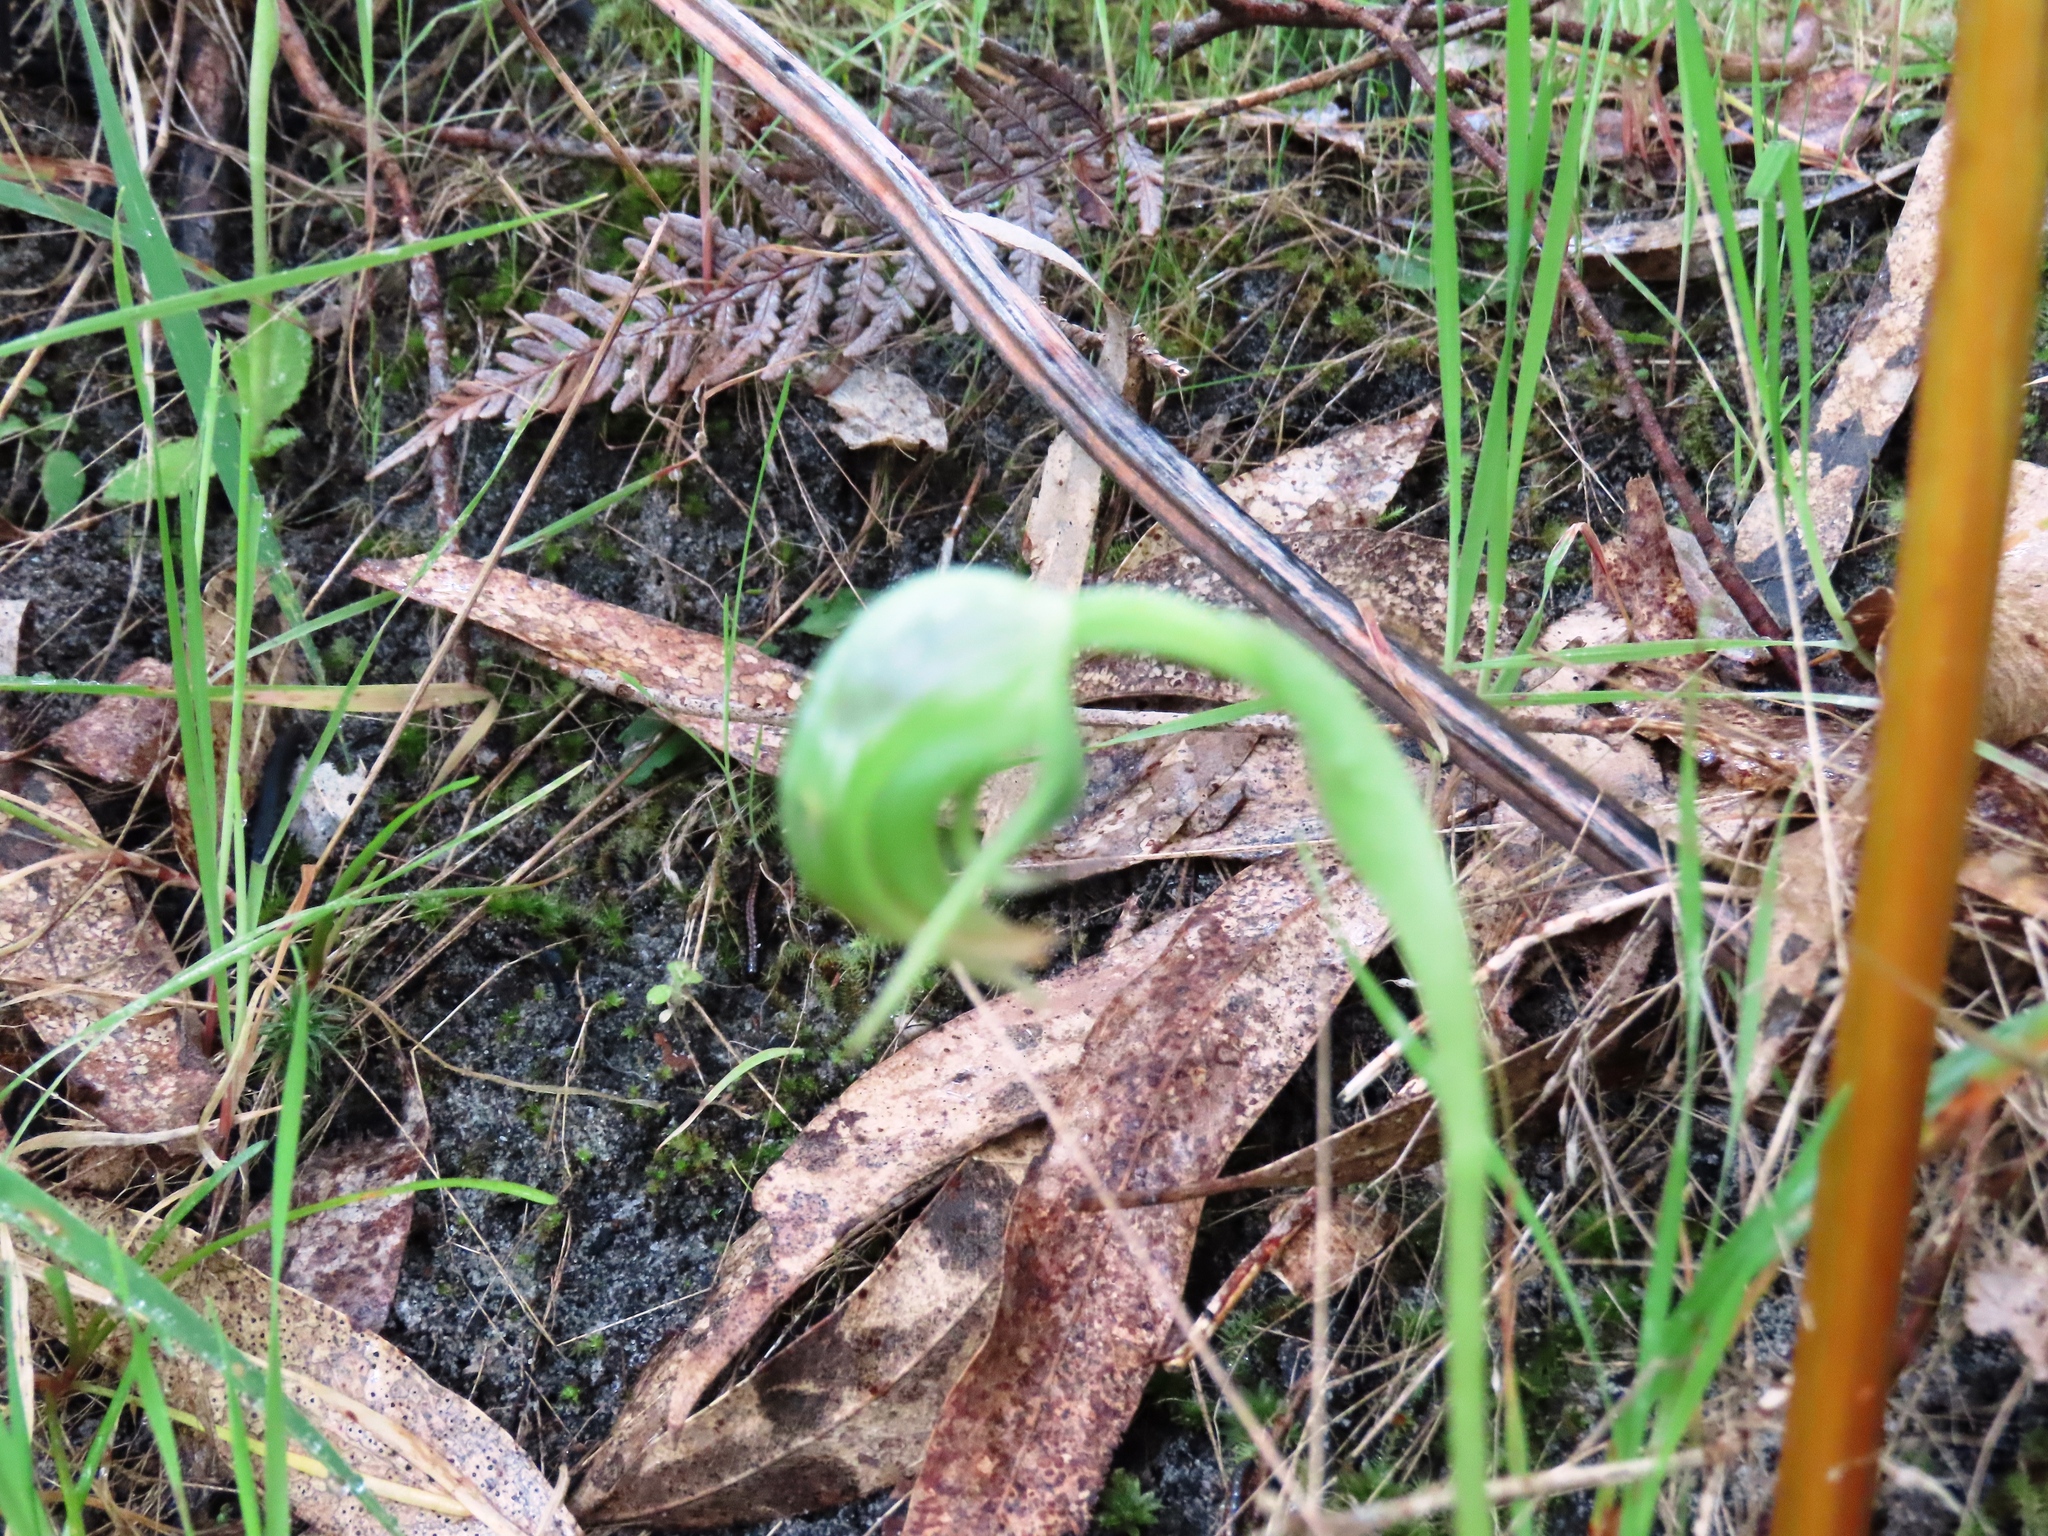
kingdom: Plantae
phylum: Tracheophyta
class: Liliopsida
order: Asparagales
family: Orchidaceae
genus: Pterostylis
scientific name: Pterostylis nutans
